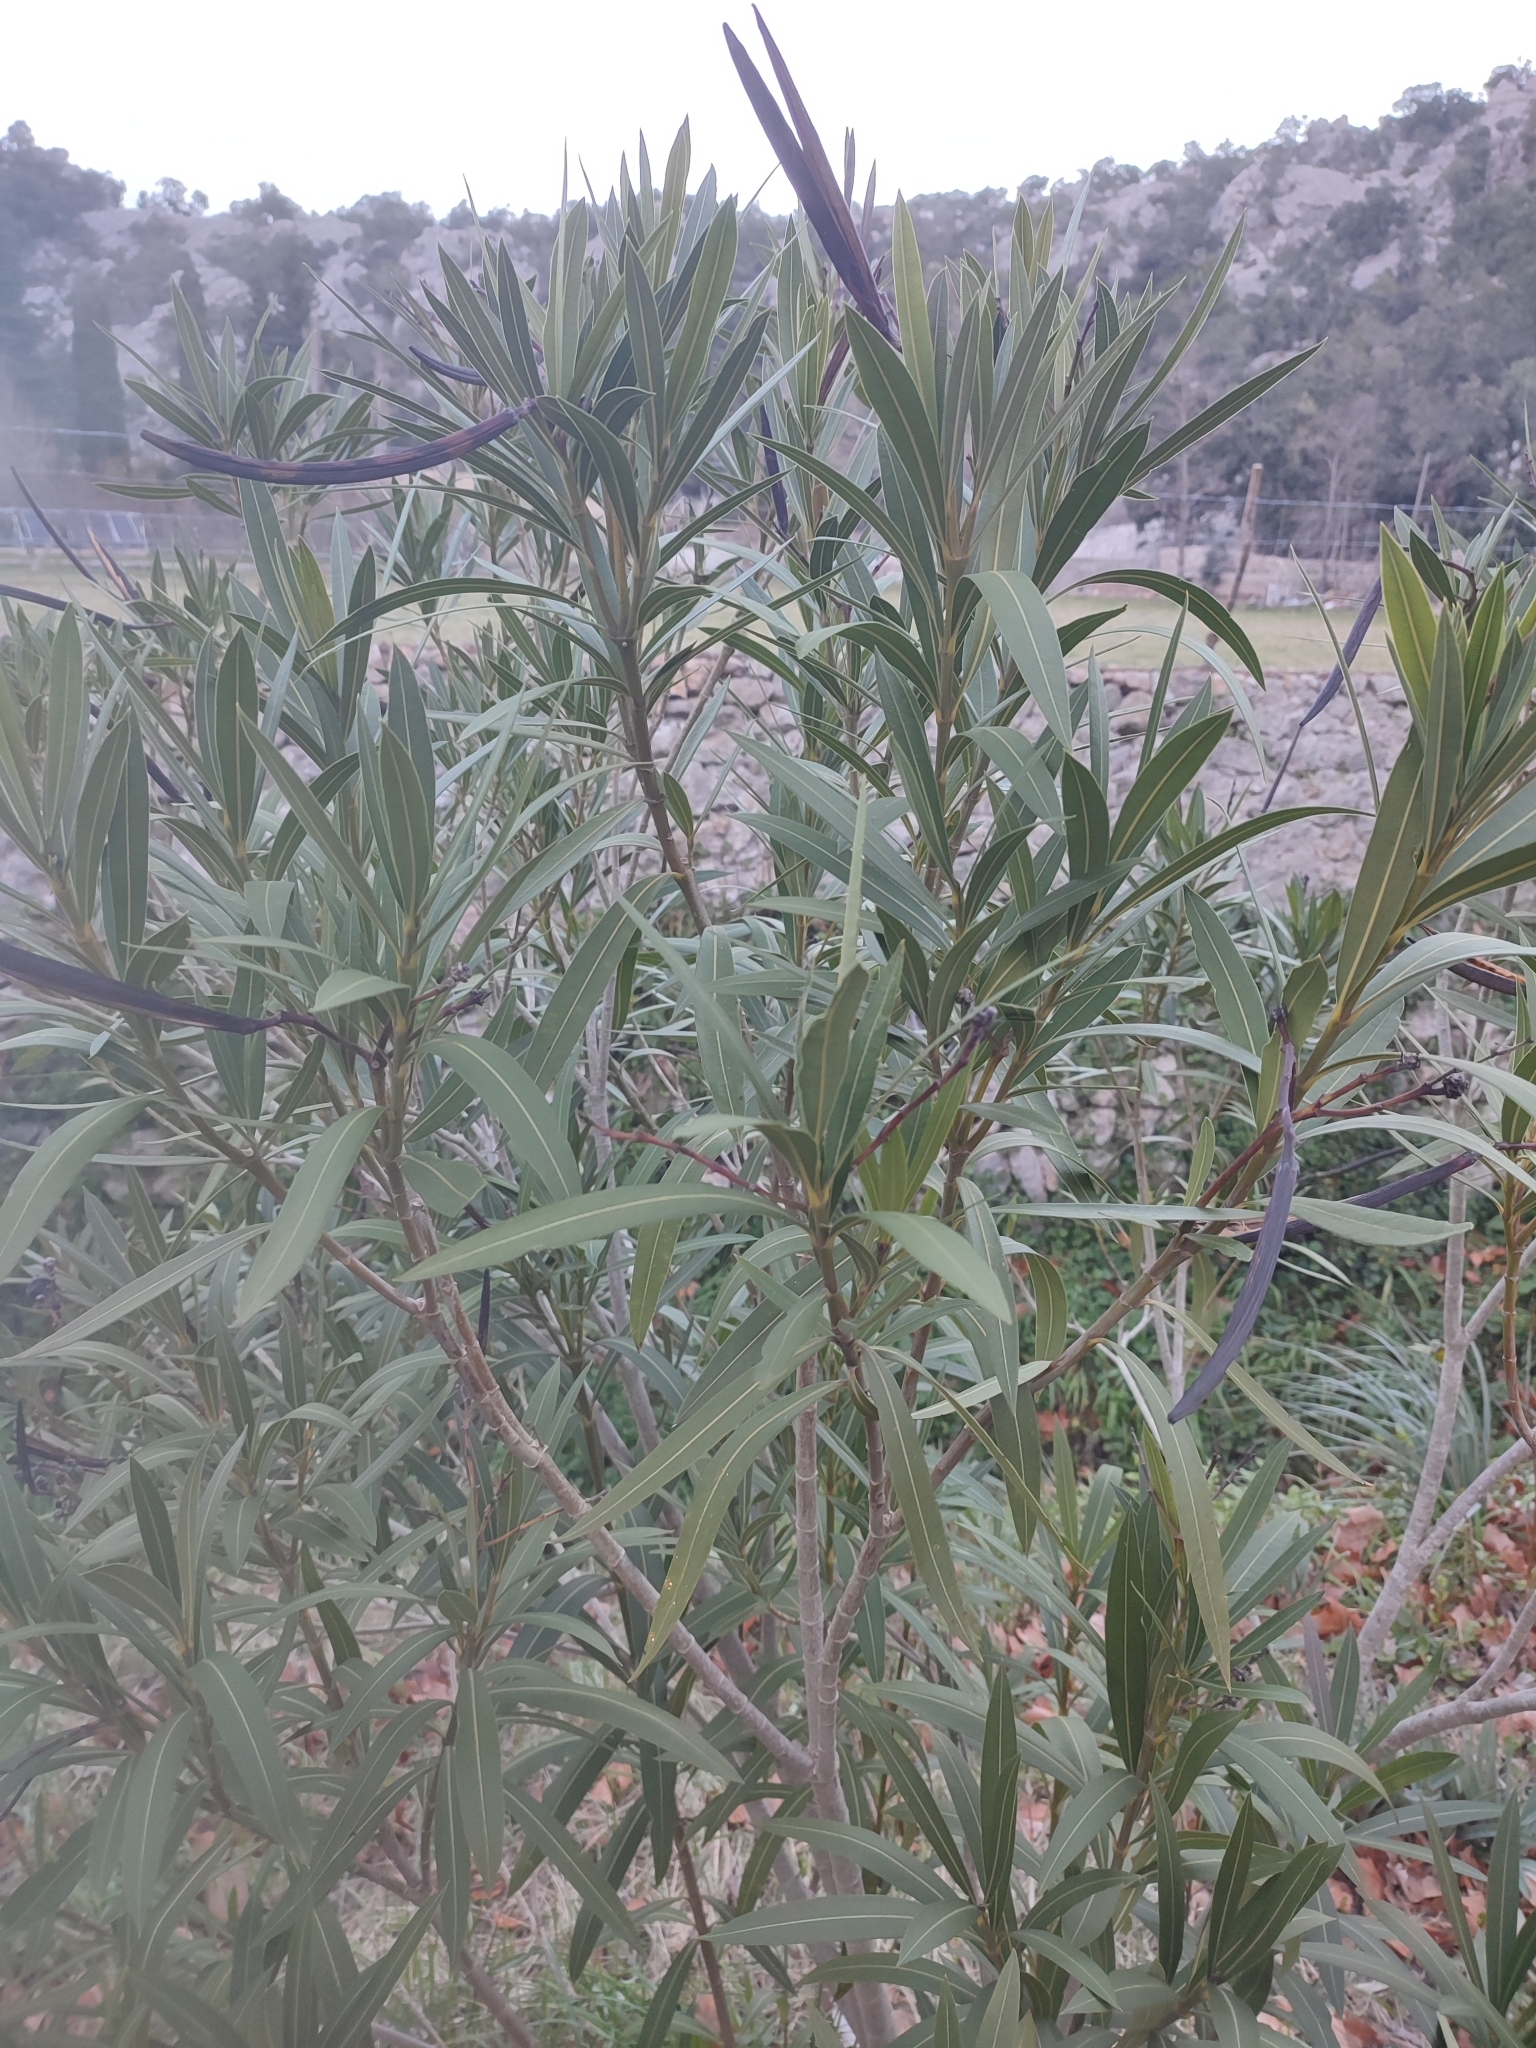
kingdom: Plantae
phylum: Tracheophyta
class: Magnoliopsida
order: Gentianales
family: Apocynaceae
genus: Nerium
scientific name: Nerium oleander
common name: Oleander
